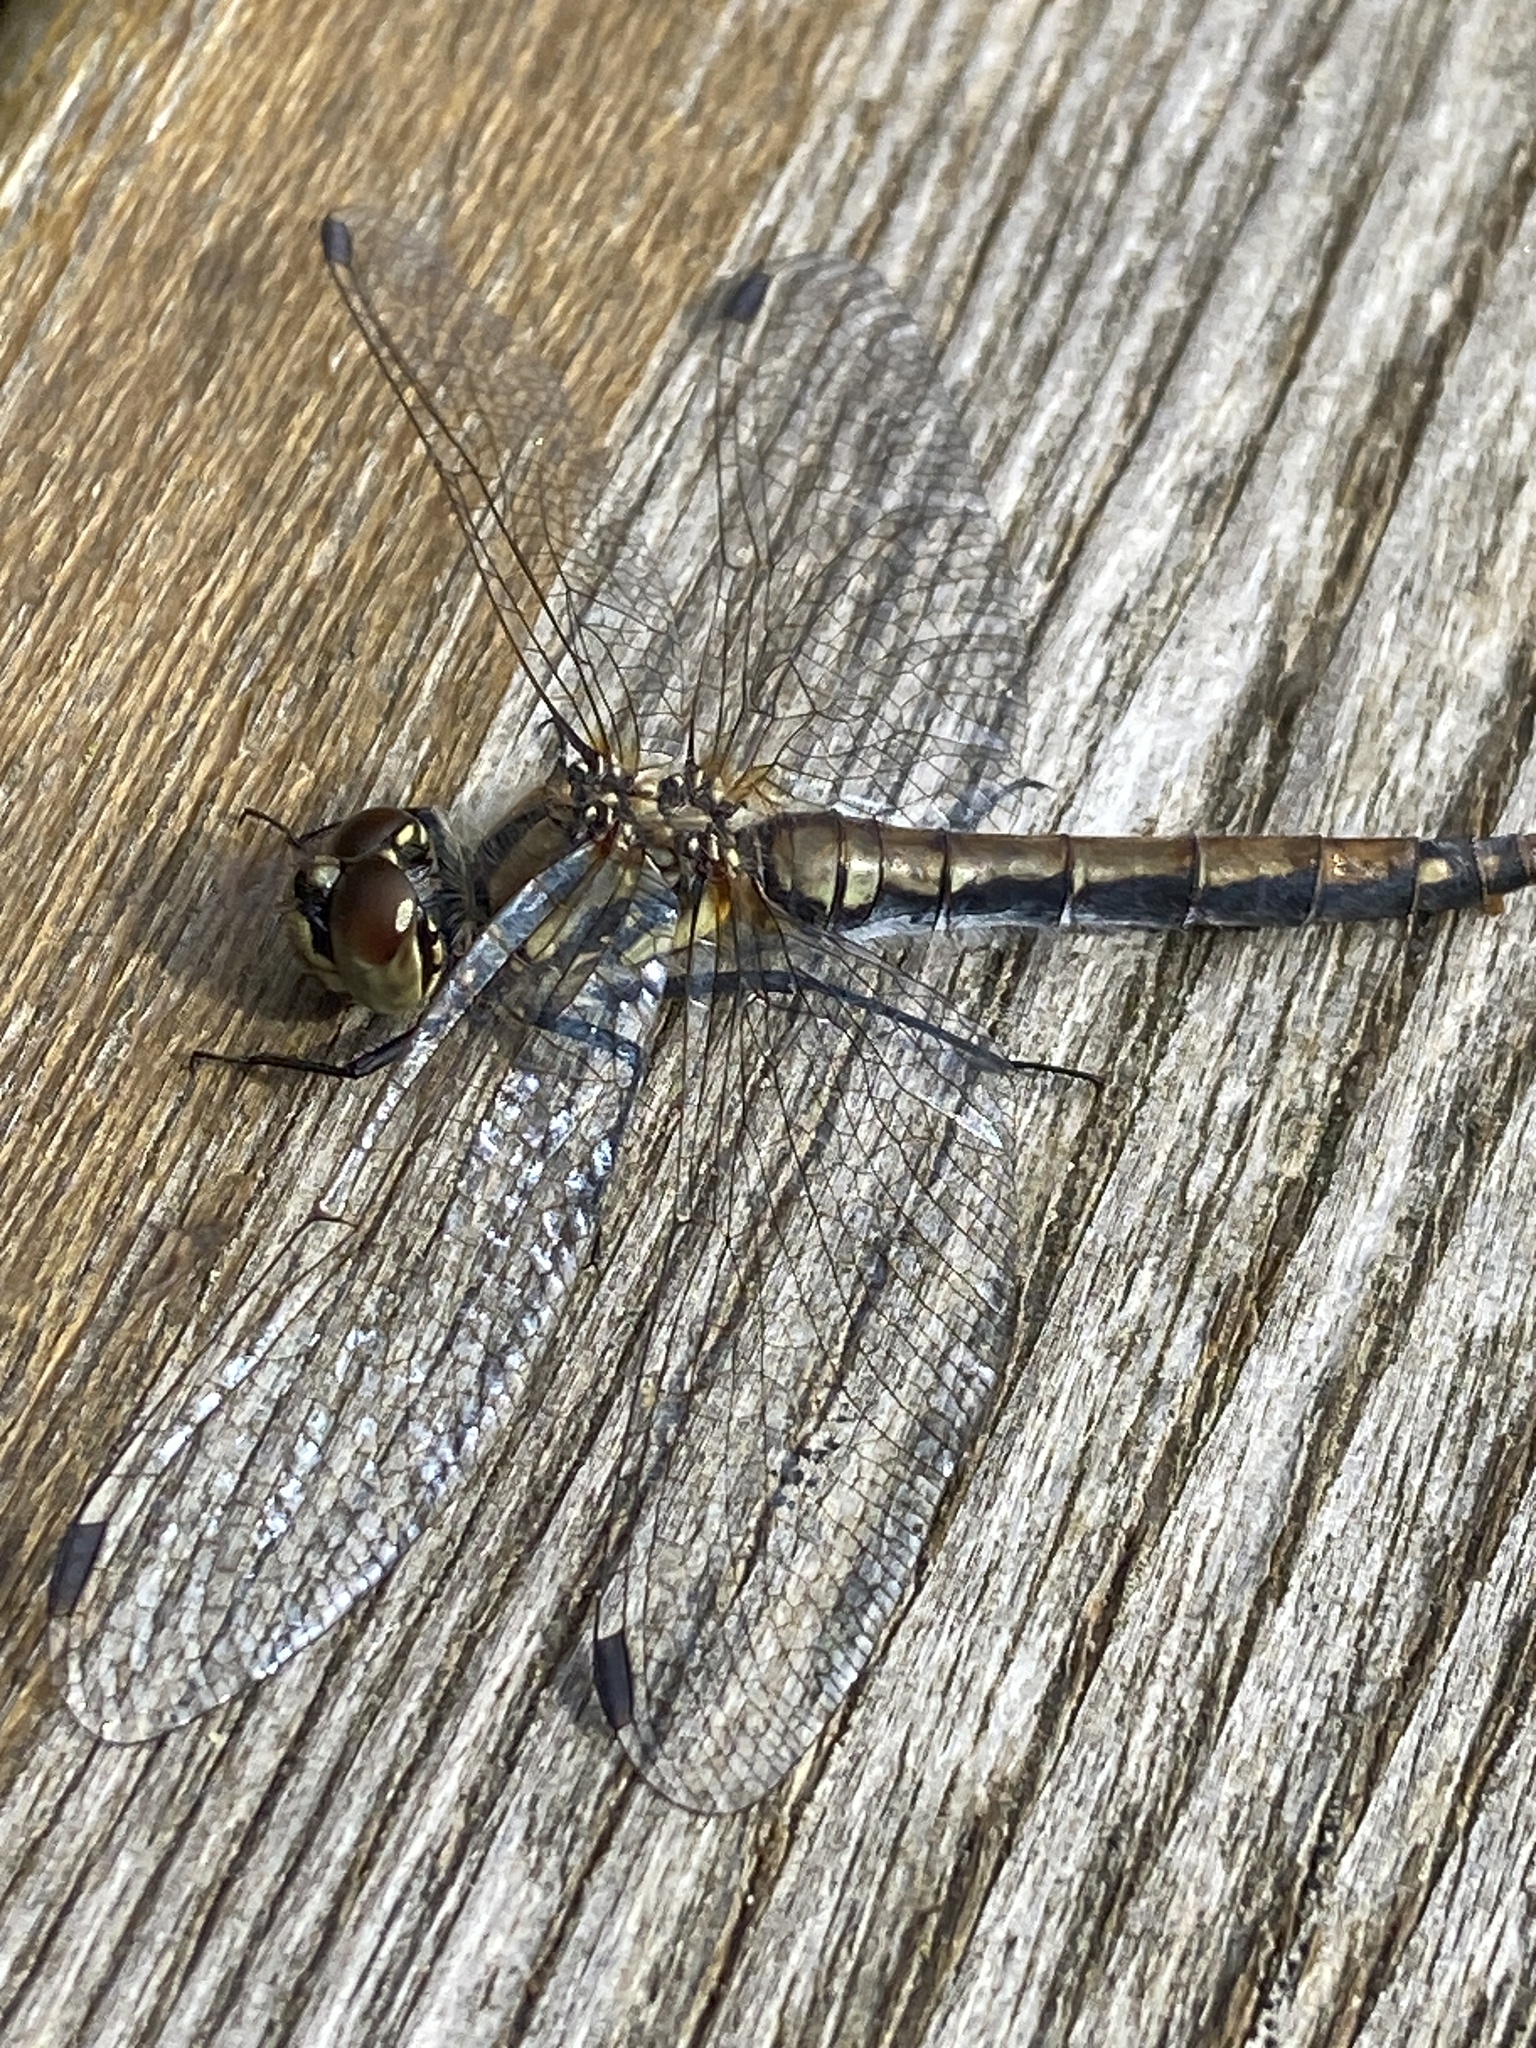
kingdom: Animalia
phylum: Arthropoda
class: Insecta
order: Odonata
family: Libellulidae
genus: Sympetrum
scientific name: Sympetrum danae
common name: Black darter
